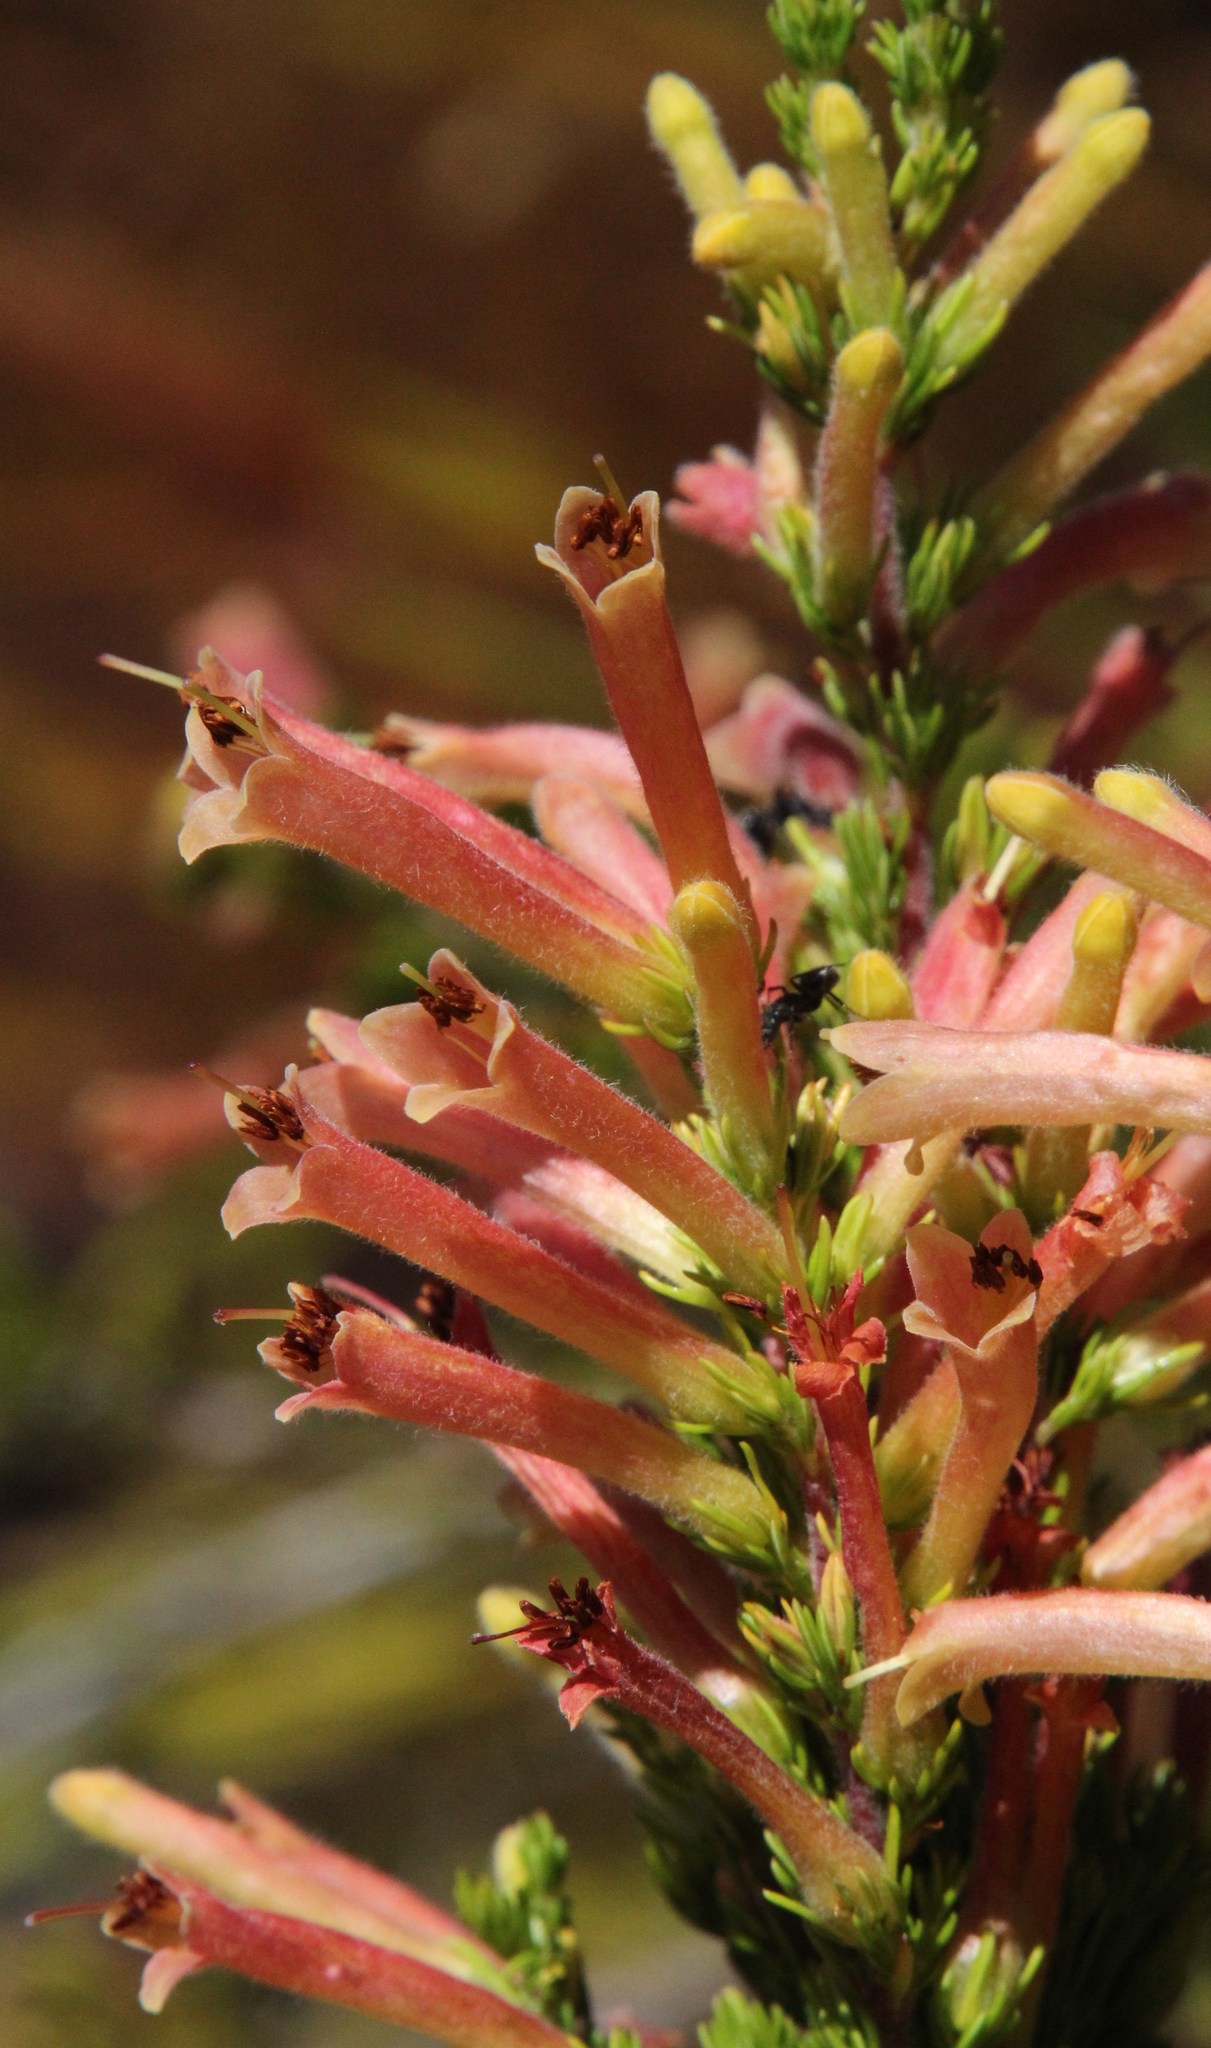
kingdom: Plantae
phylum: Tracheophyta
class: Magnoliopsida
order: Ericales
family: Ericaceae
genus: Erica
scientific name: Erica curviflora
